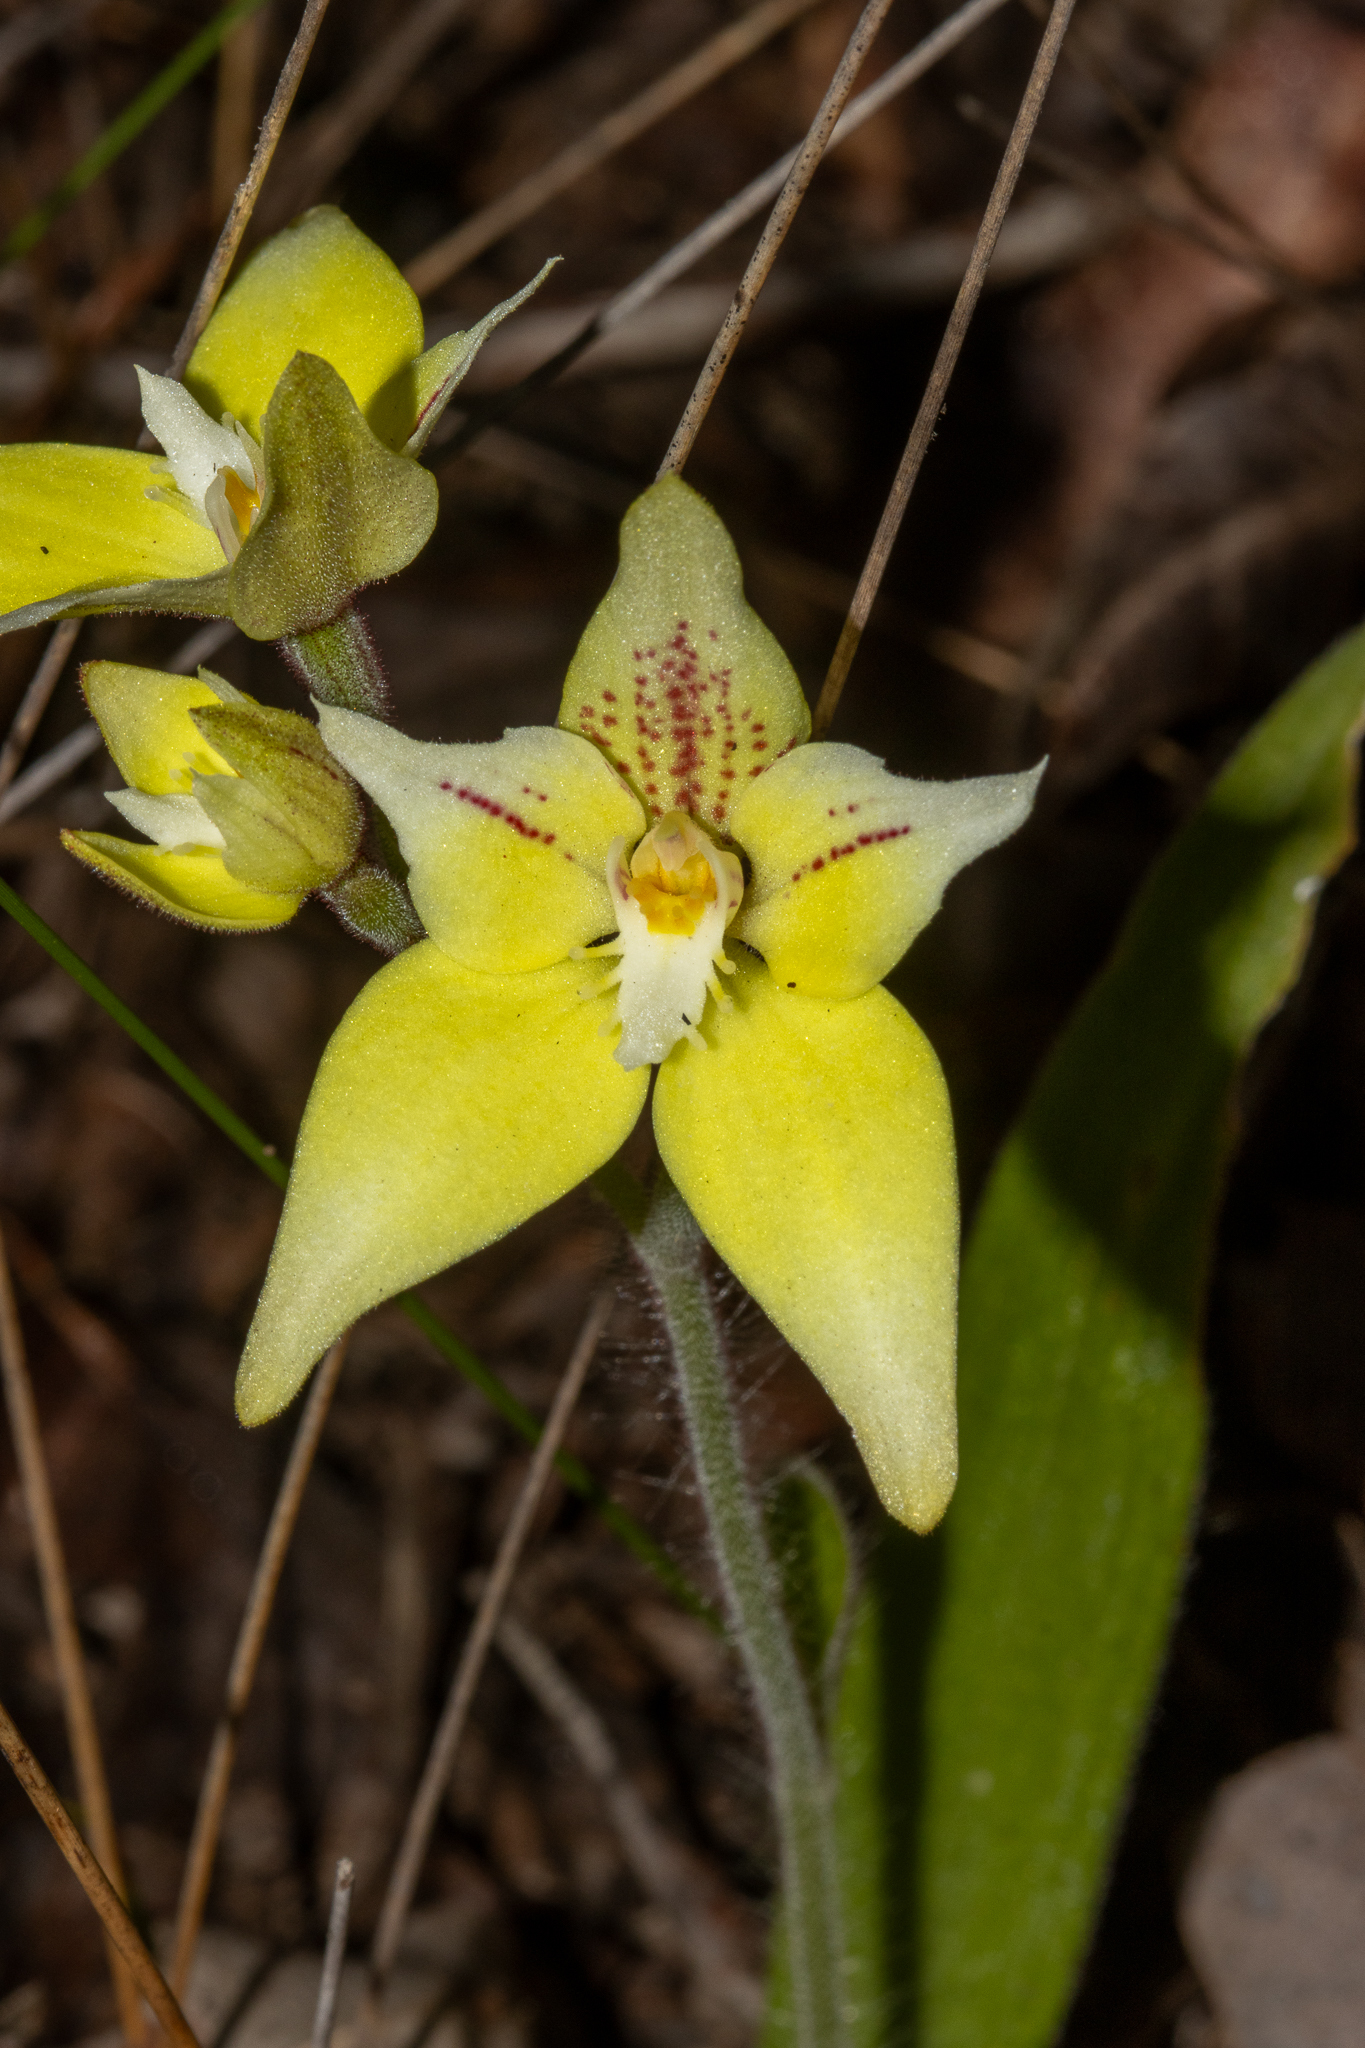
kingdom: Plantae
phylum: Tracheophyta
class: Liliopsida
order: Asparagales
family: Orchidaceae
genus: Caladenia
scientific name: Caladenia flava
